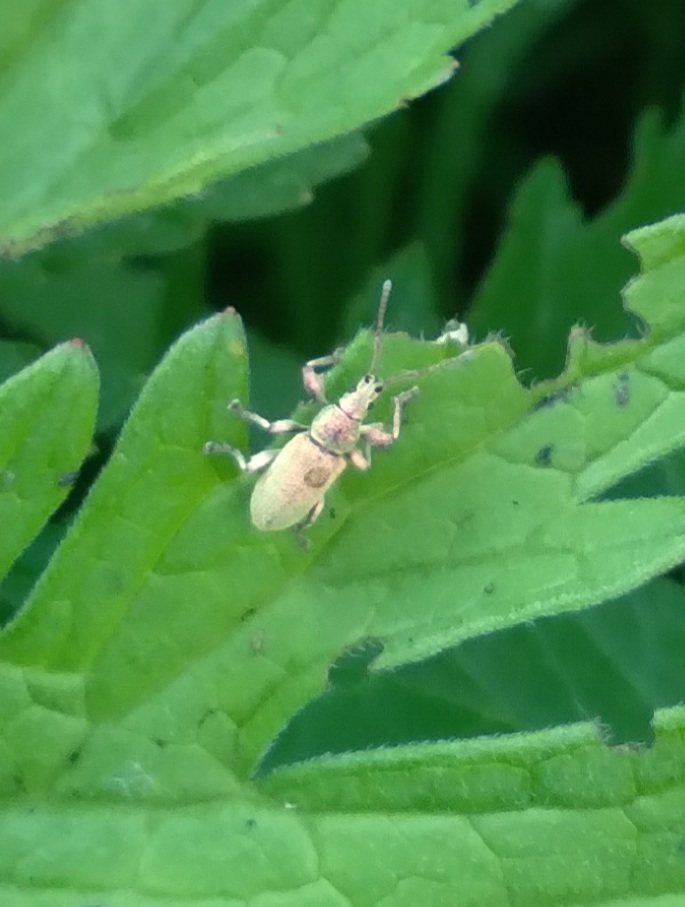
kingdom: Animalia
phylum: Arthropoda
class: Insecta
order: Coleoptera
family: Curculionidae
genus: Phyllobius
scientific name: Phyllobius maculicornis
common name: Green leaf weevil
